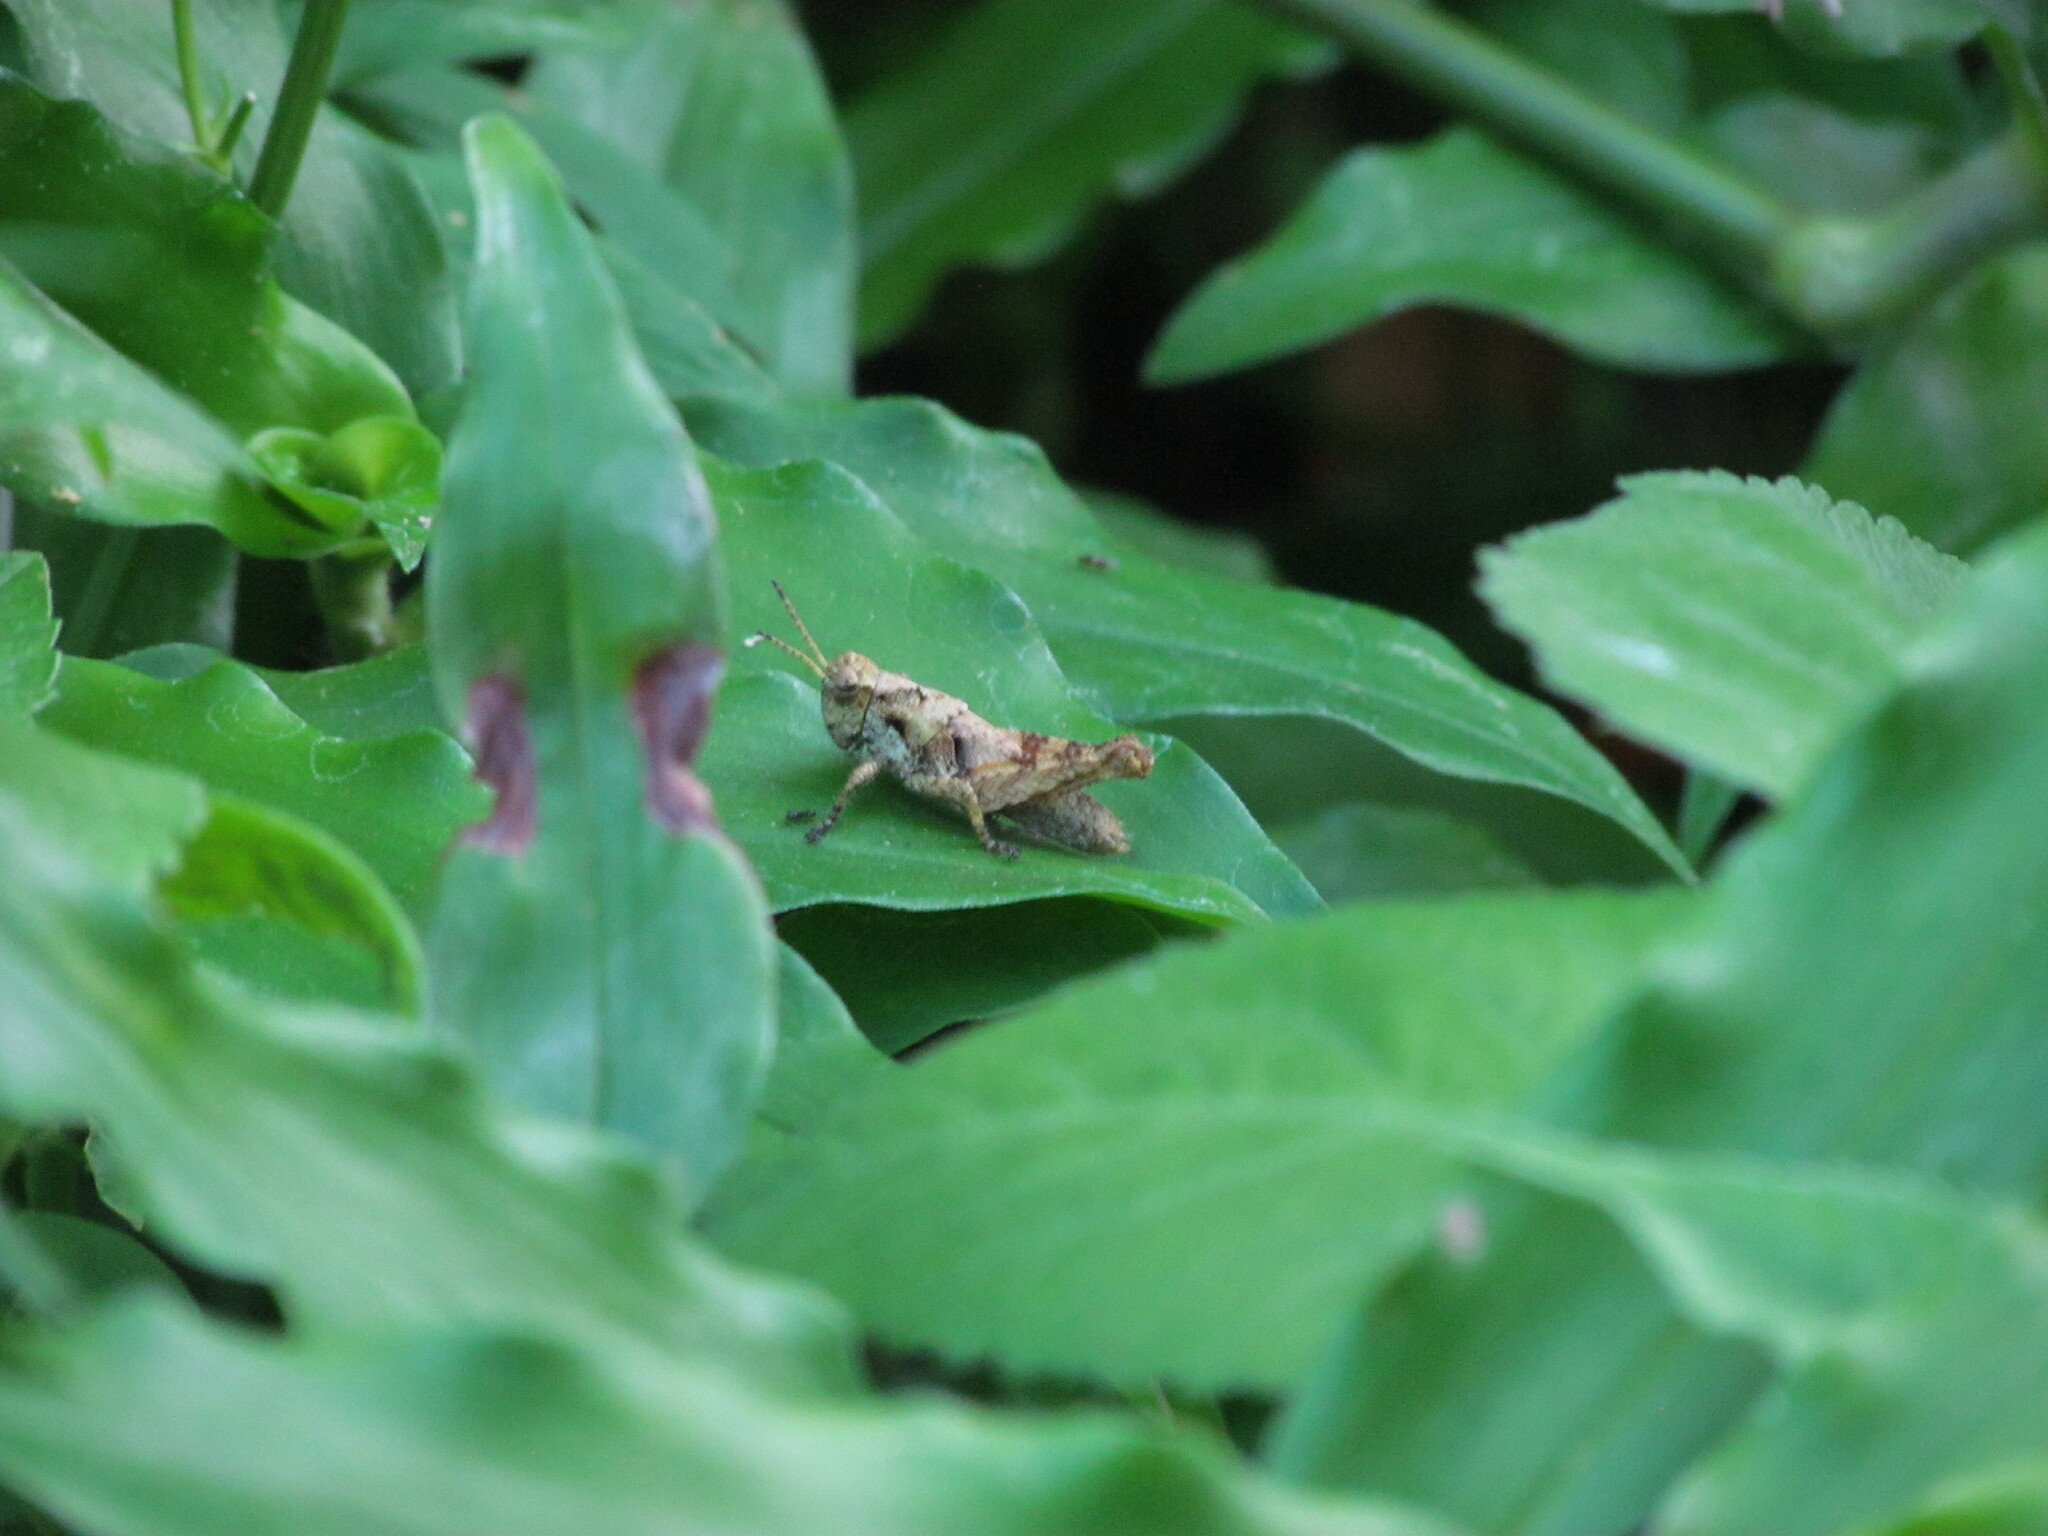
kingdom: Animalia
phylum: Arthropoda
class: Insecta
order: Orthoptera
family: Acrididae
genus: Ronderosia
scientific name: Ronderosia bergii
